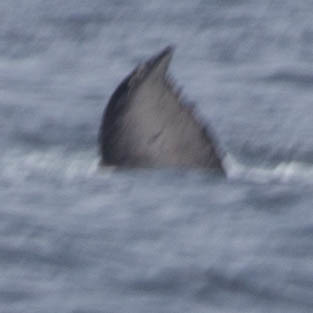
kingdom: Animalia
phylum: Chordata
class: Mammalia
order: Cetacea
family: Balaenopteridae
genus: Megaptera
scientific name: Megaptera novaeangliae
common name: Humpback whale
